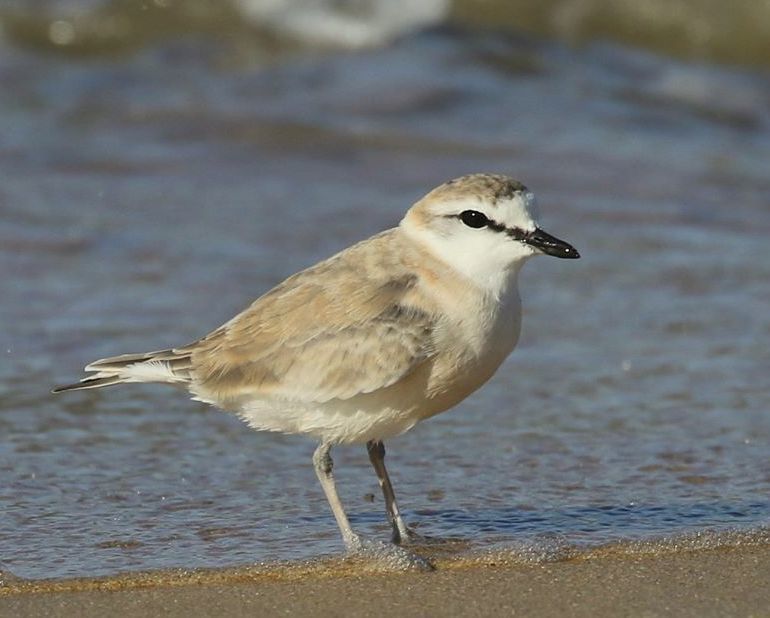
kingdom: Animalia
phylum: Chordata
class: Aves
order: Charadriiformes
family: Charadriidae
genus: Anarhynchus
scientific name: Anarhynchus
